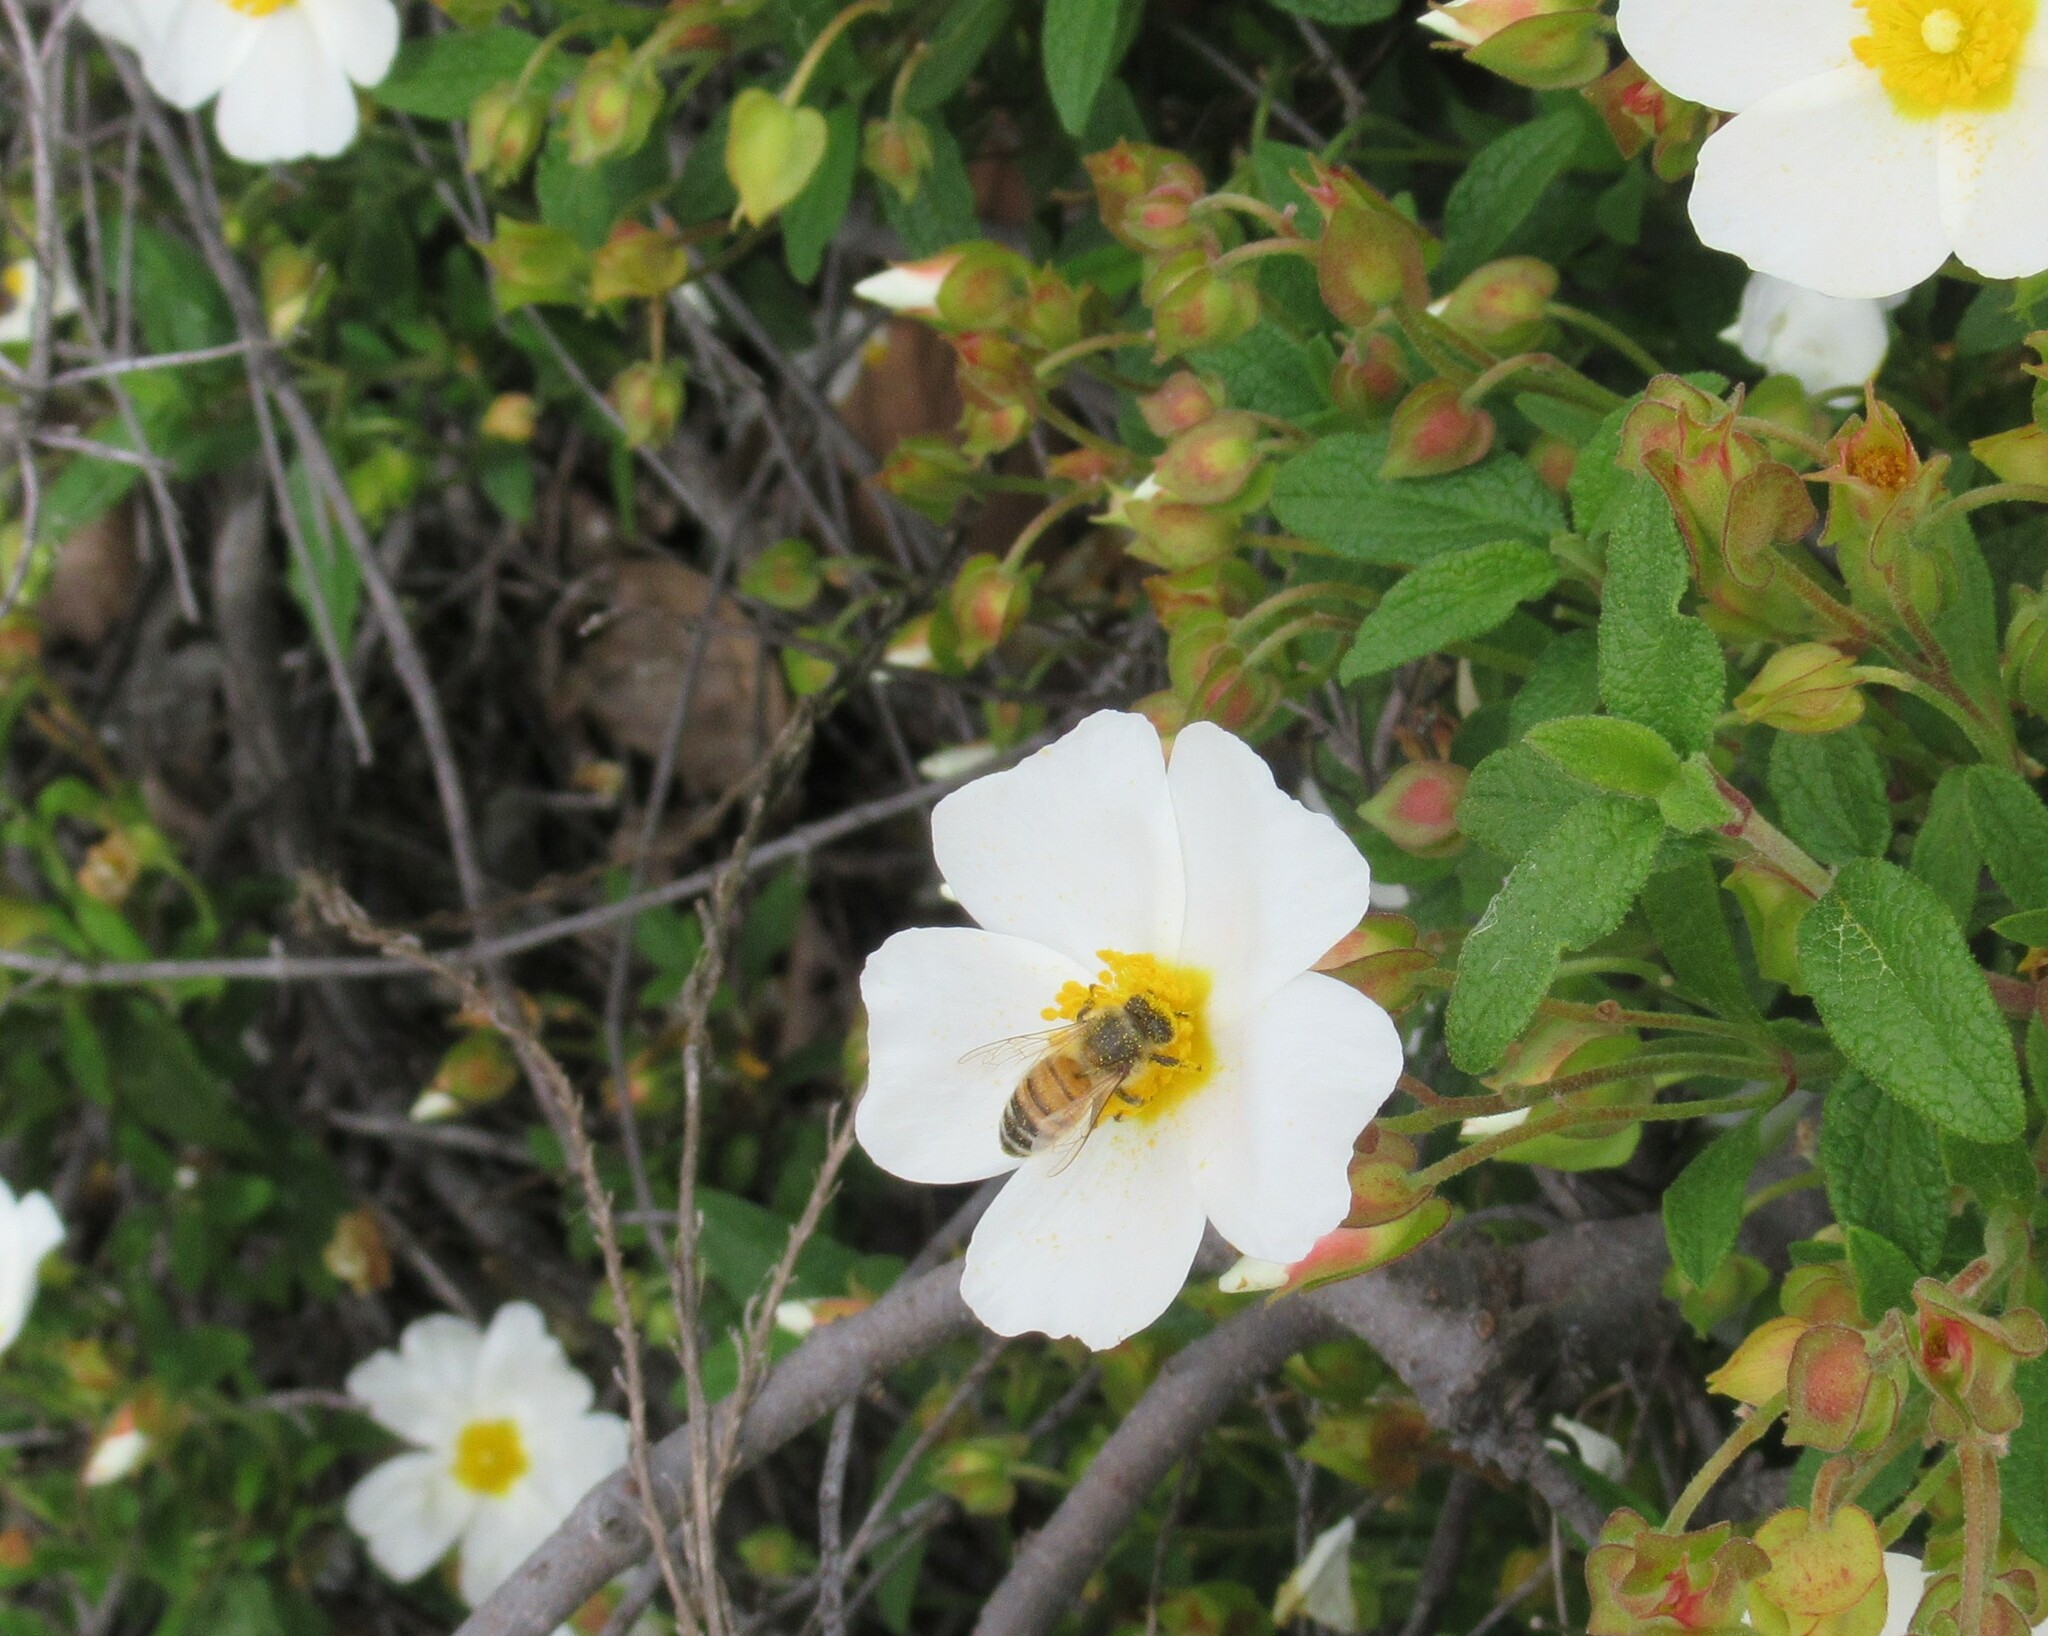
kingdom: Animalia
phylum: Arthropoda
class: Insecta
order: Hymenoptera
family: Apidae
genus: Apis
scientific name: Apis mellifera
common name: Honey bee
